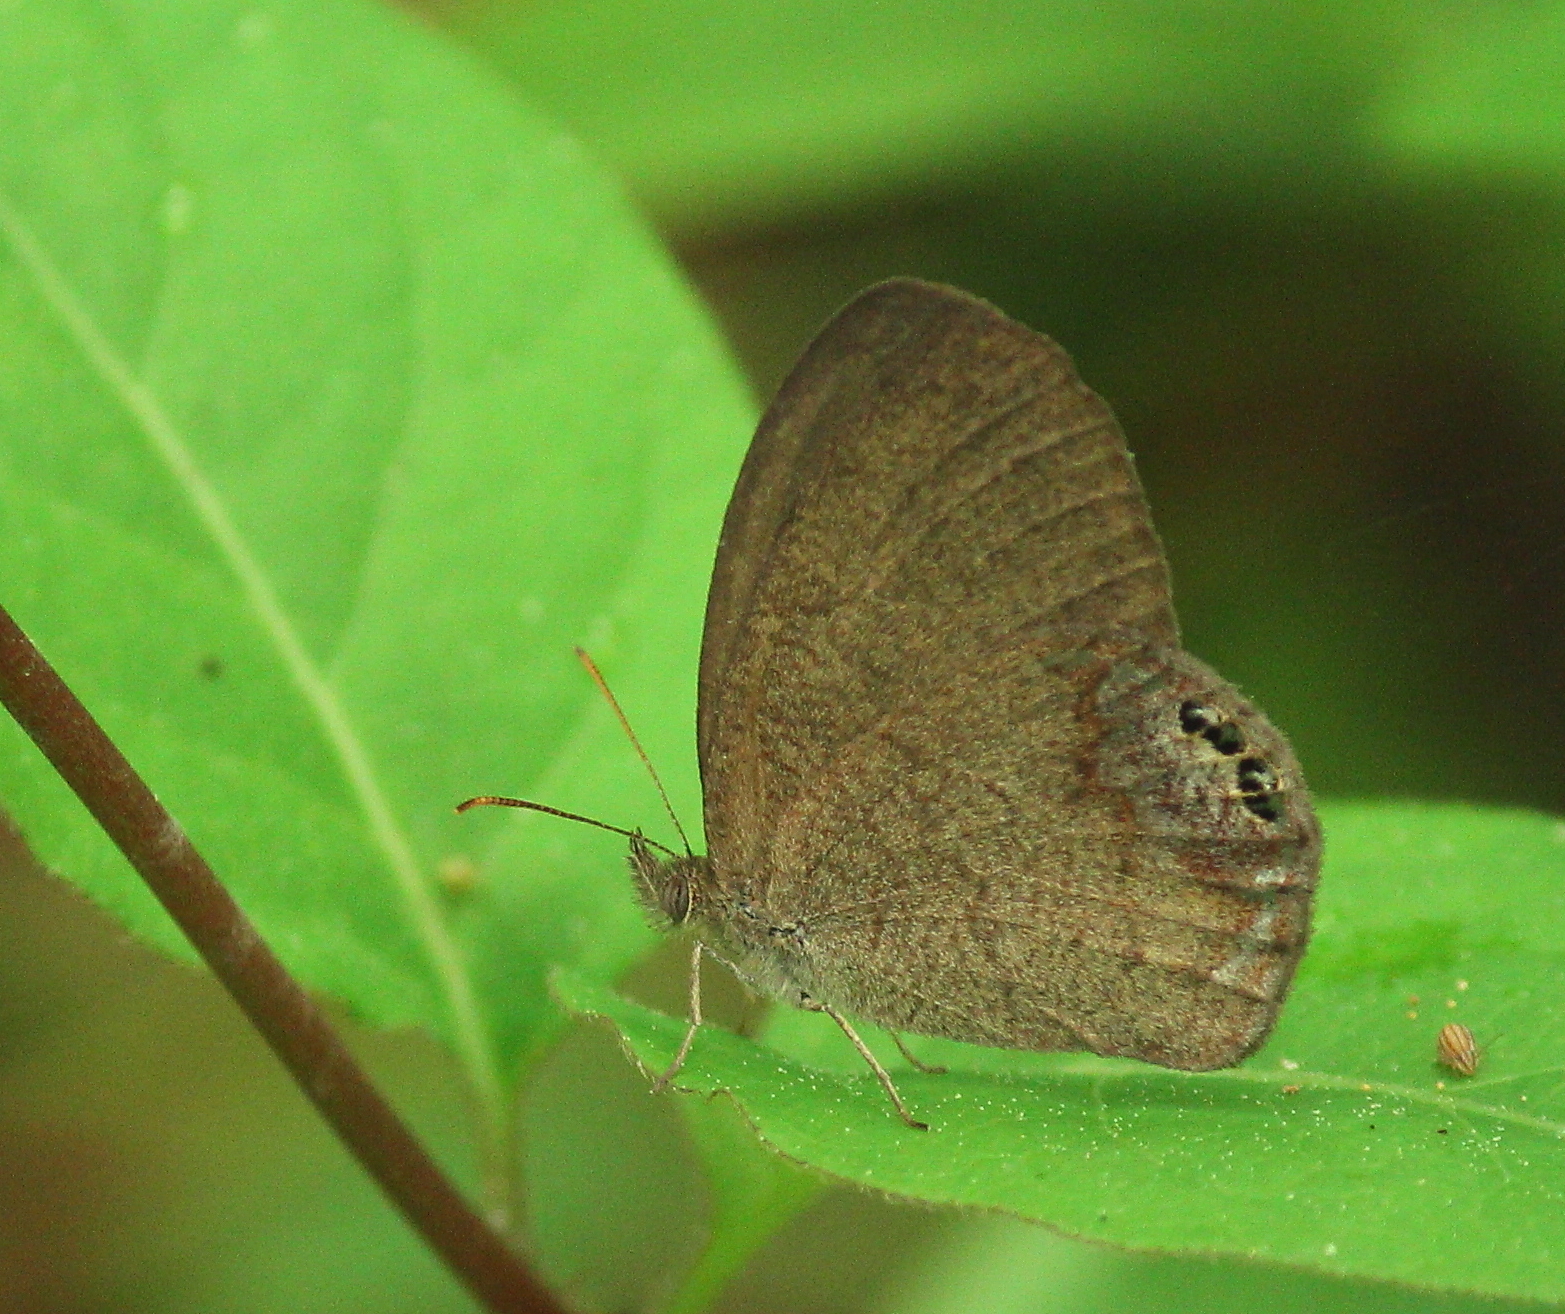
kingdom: Animalia
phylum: Arthropoda
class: Insecta
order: Lepidoptera
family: Nymphalidae
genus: Euptychia
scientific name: Euptychia cornelius
